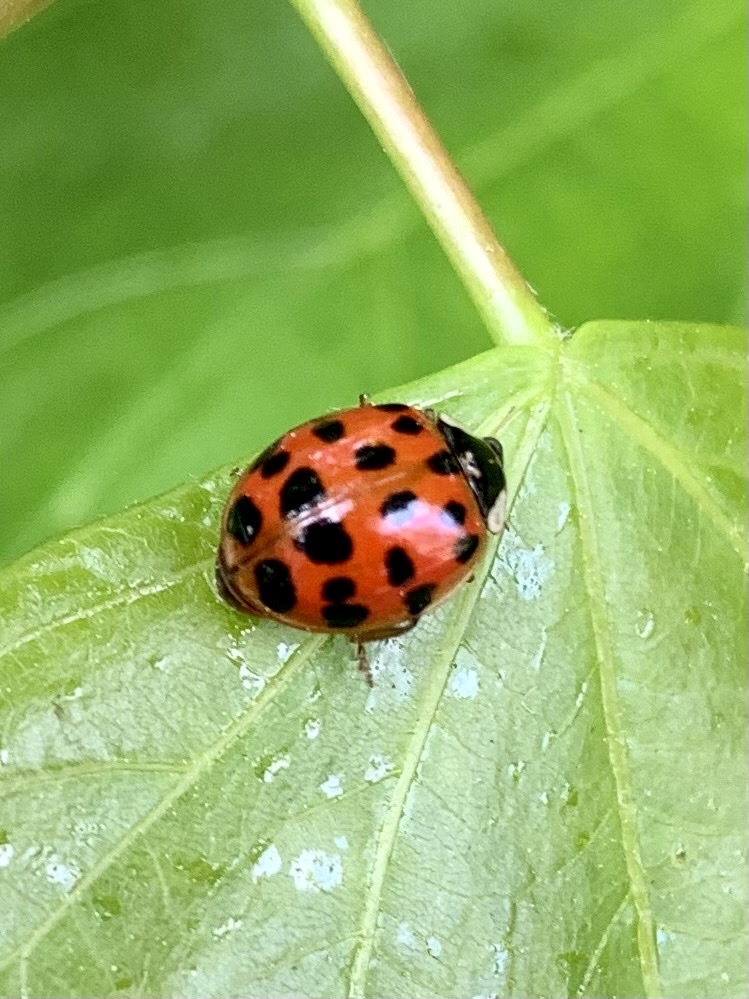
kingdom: Animalia
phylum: Arthropoda
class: Insecta
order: Coleoptera
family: Coccinellidae
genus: Harmonia
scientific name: Harmonia axyridis
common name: Harlequin ladybird
